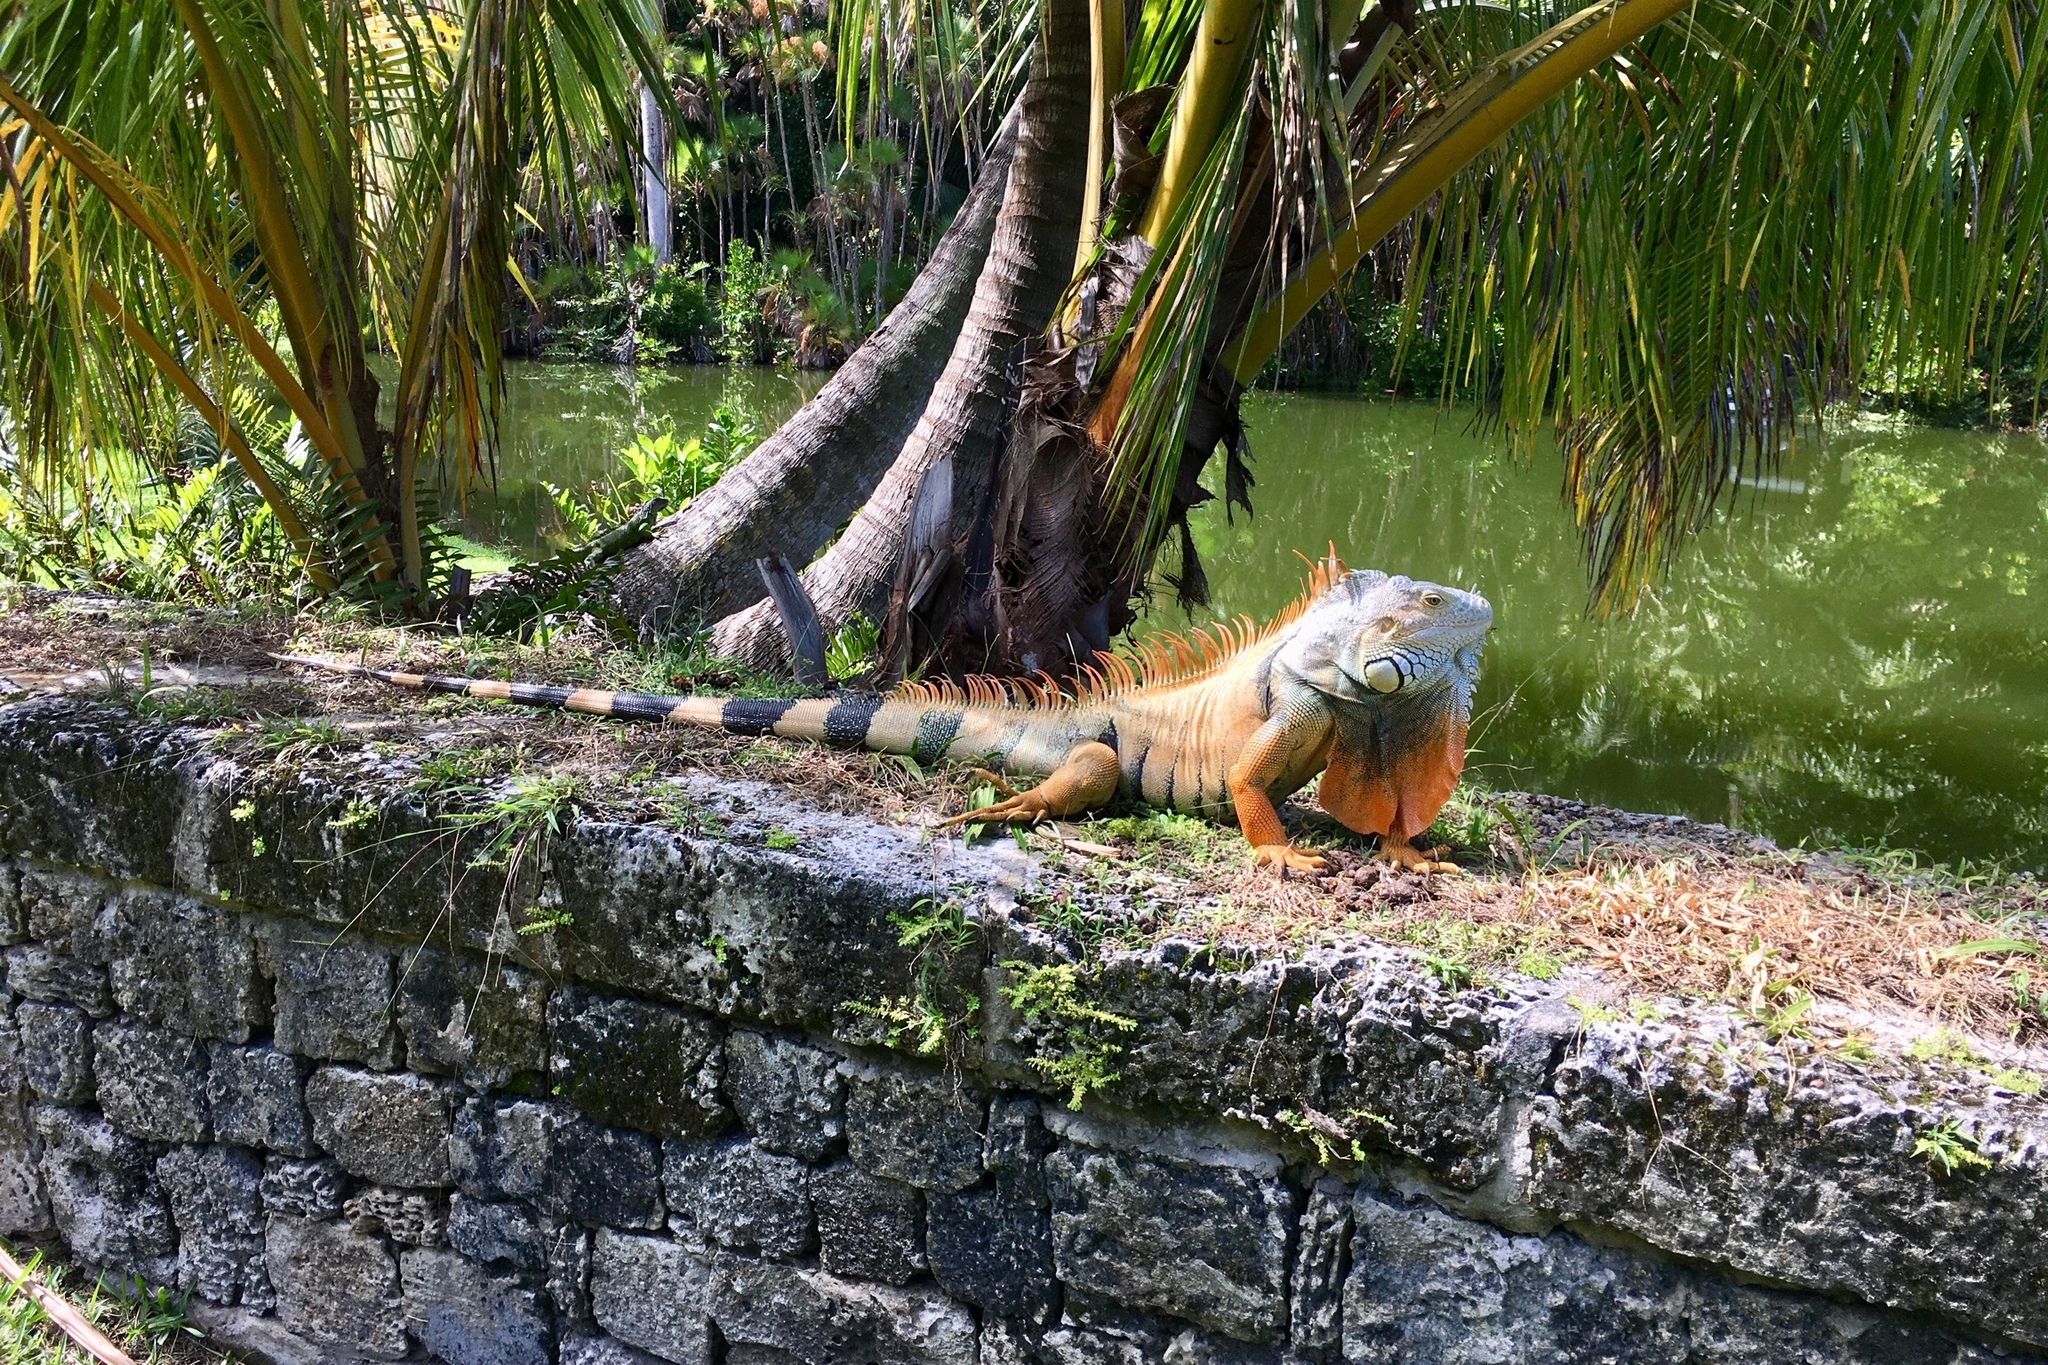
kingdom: Animalia
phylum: Chordata
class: Squamata
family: Iguanidae
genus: Iguana
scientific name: Iguana iguana
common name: Green iguana
